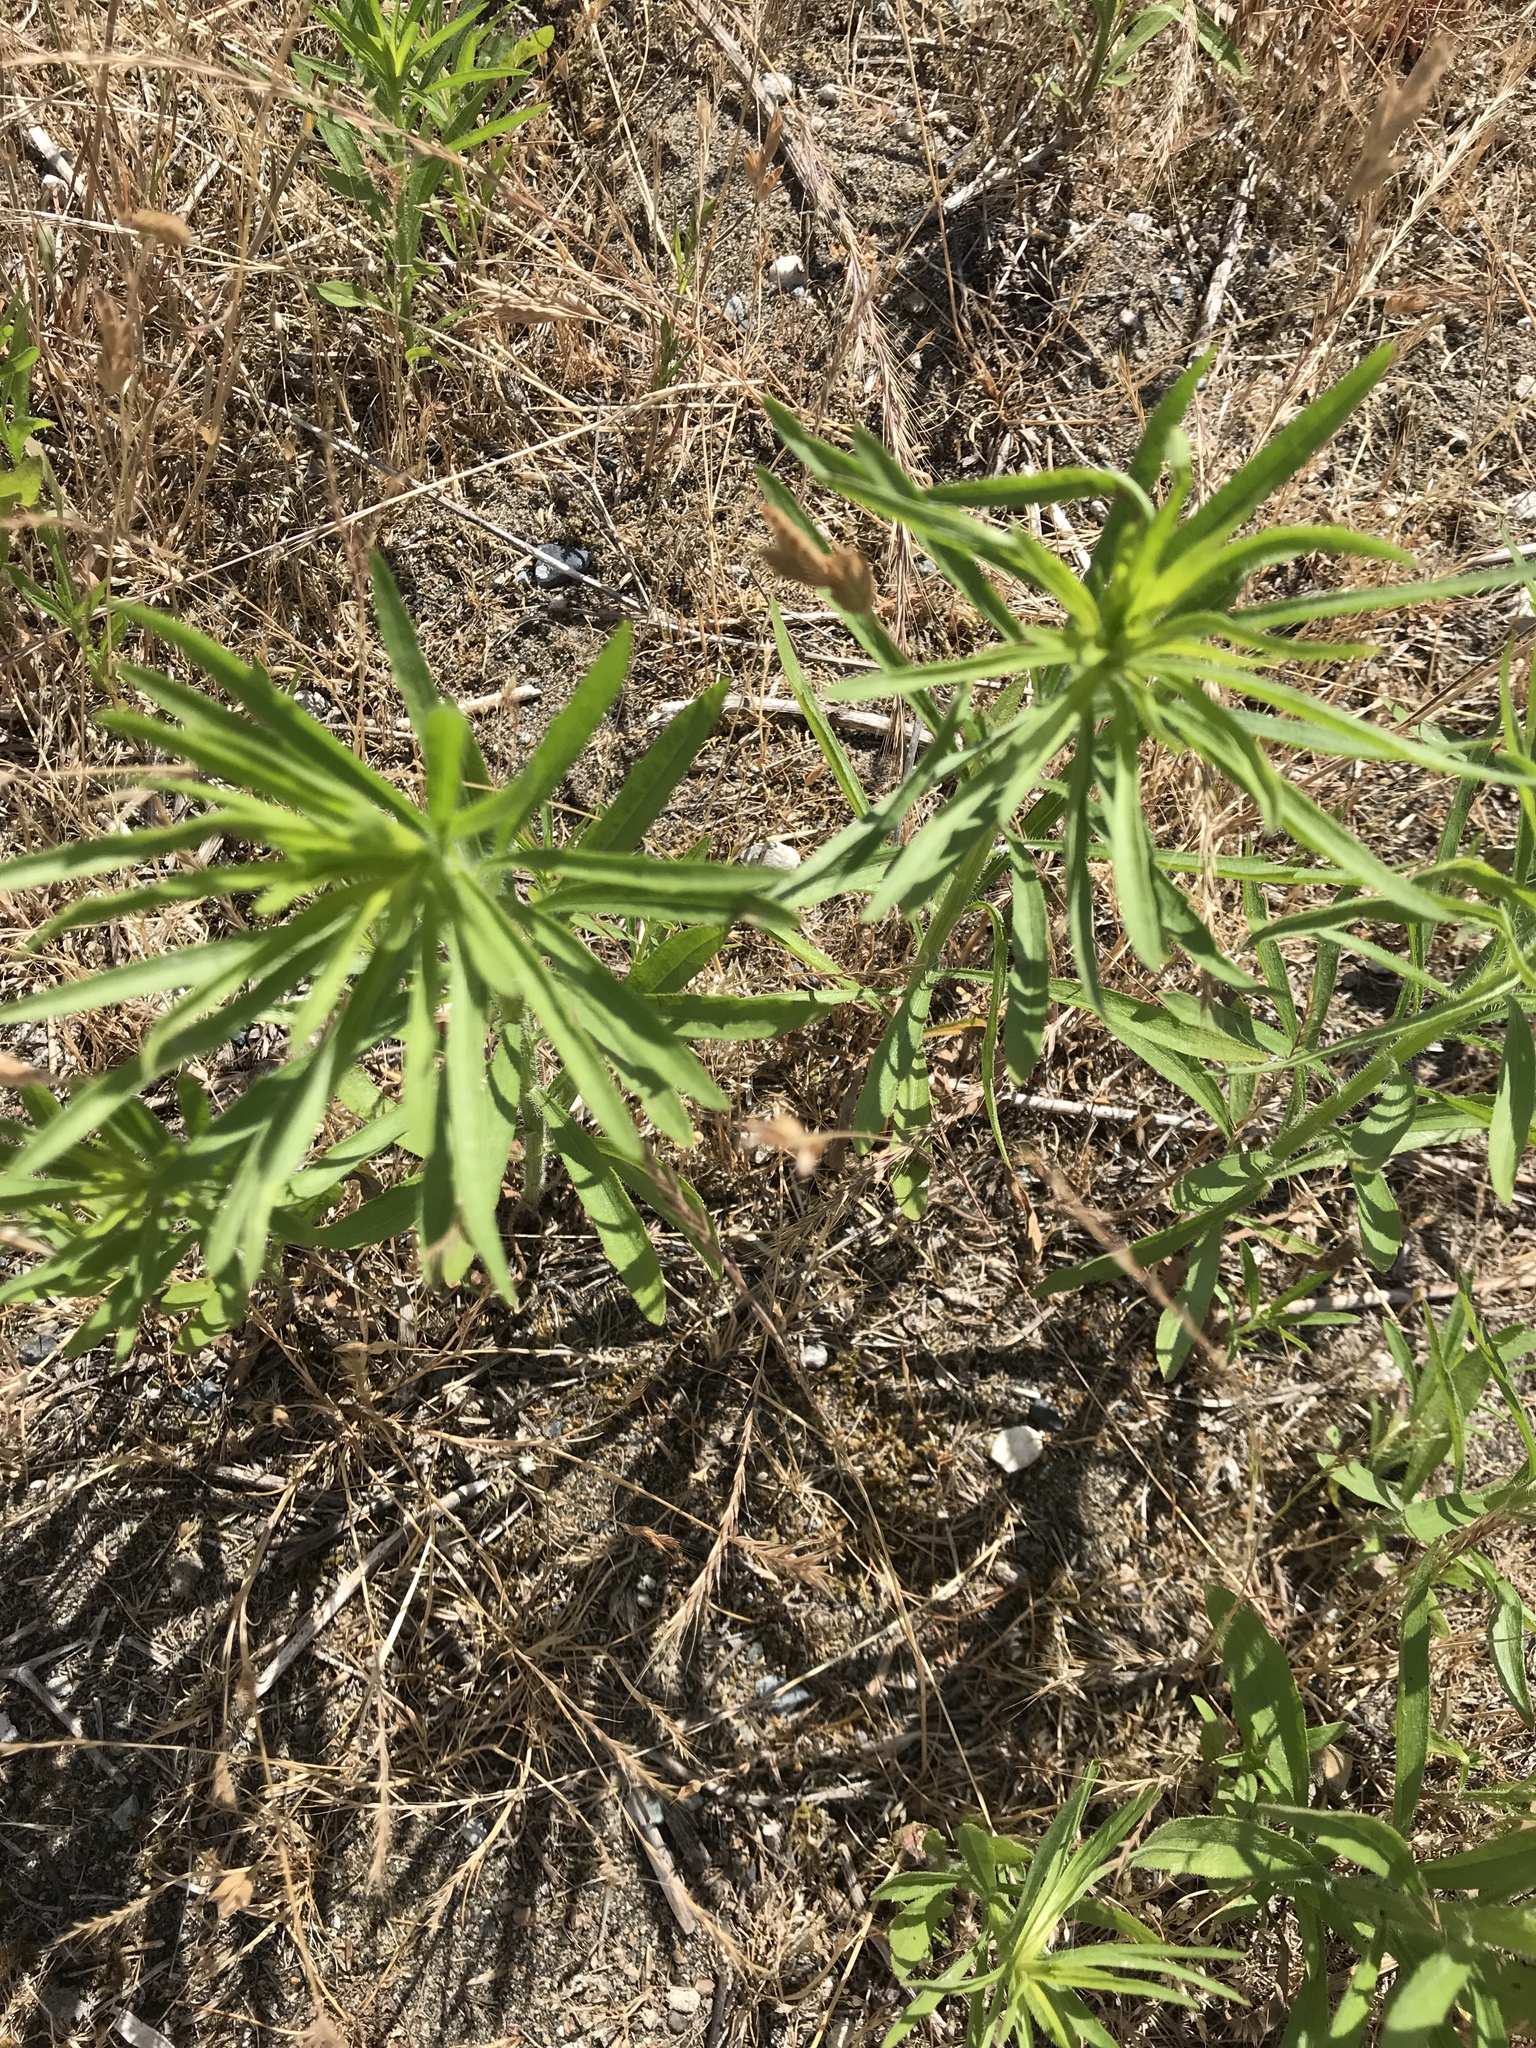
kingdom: Plantae
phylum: Tracheophyta
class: Magnoliopsida
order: Asterales
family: Asteraceae
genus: Erigeron
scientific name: Erigeron canadensis
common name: Canadian fleabane
